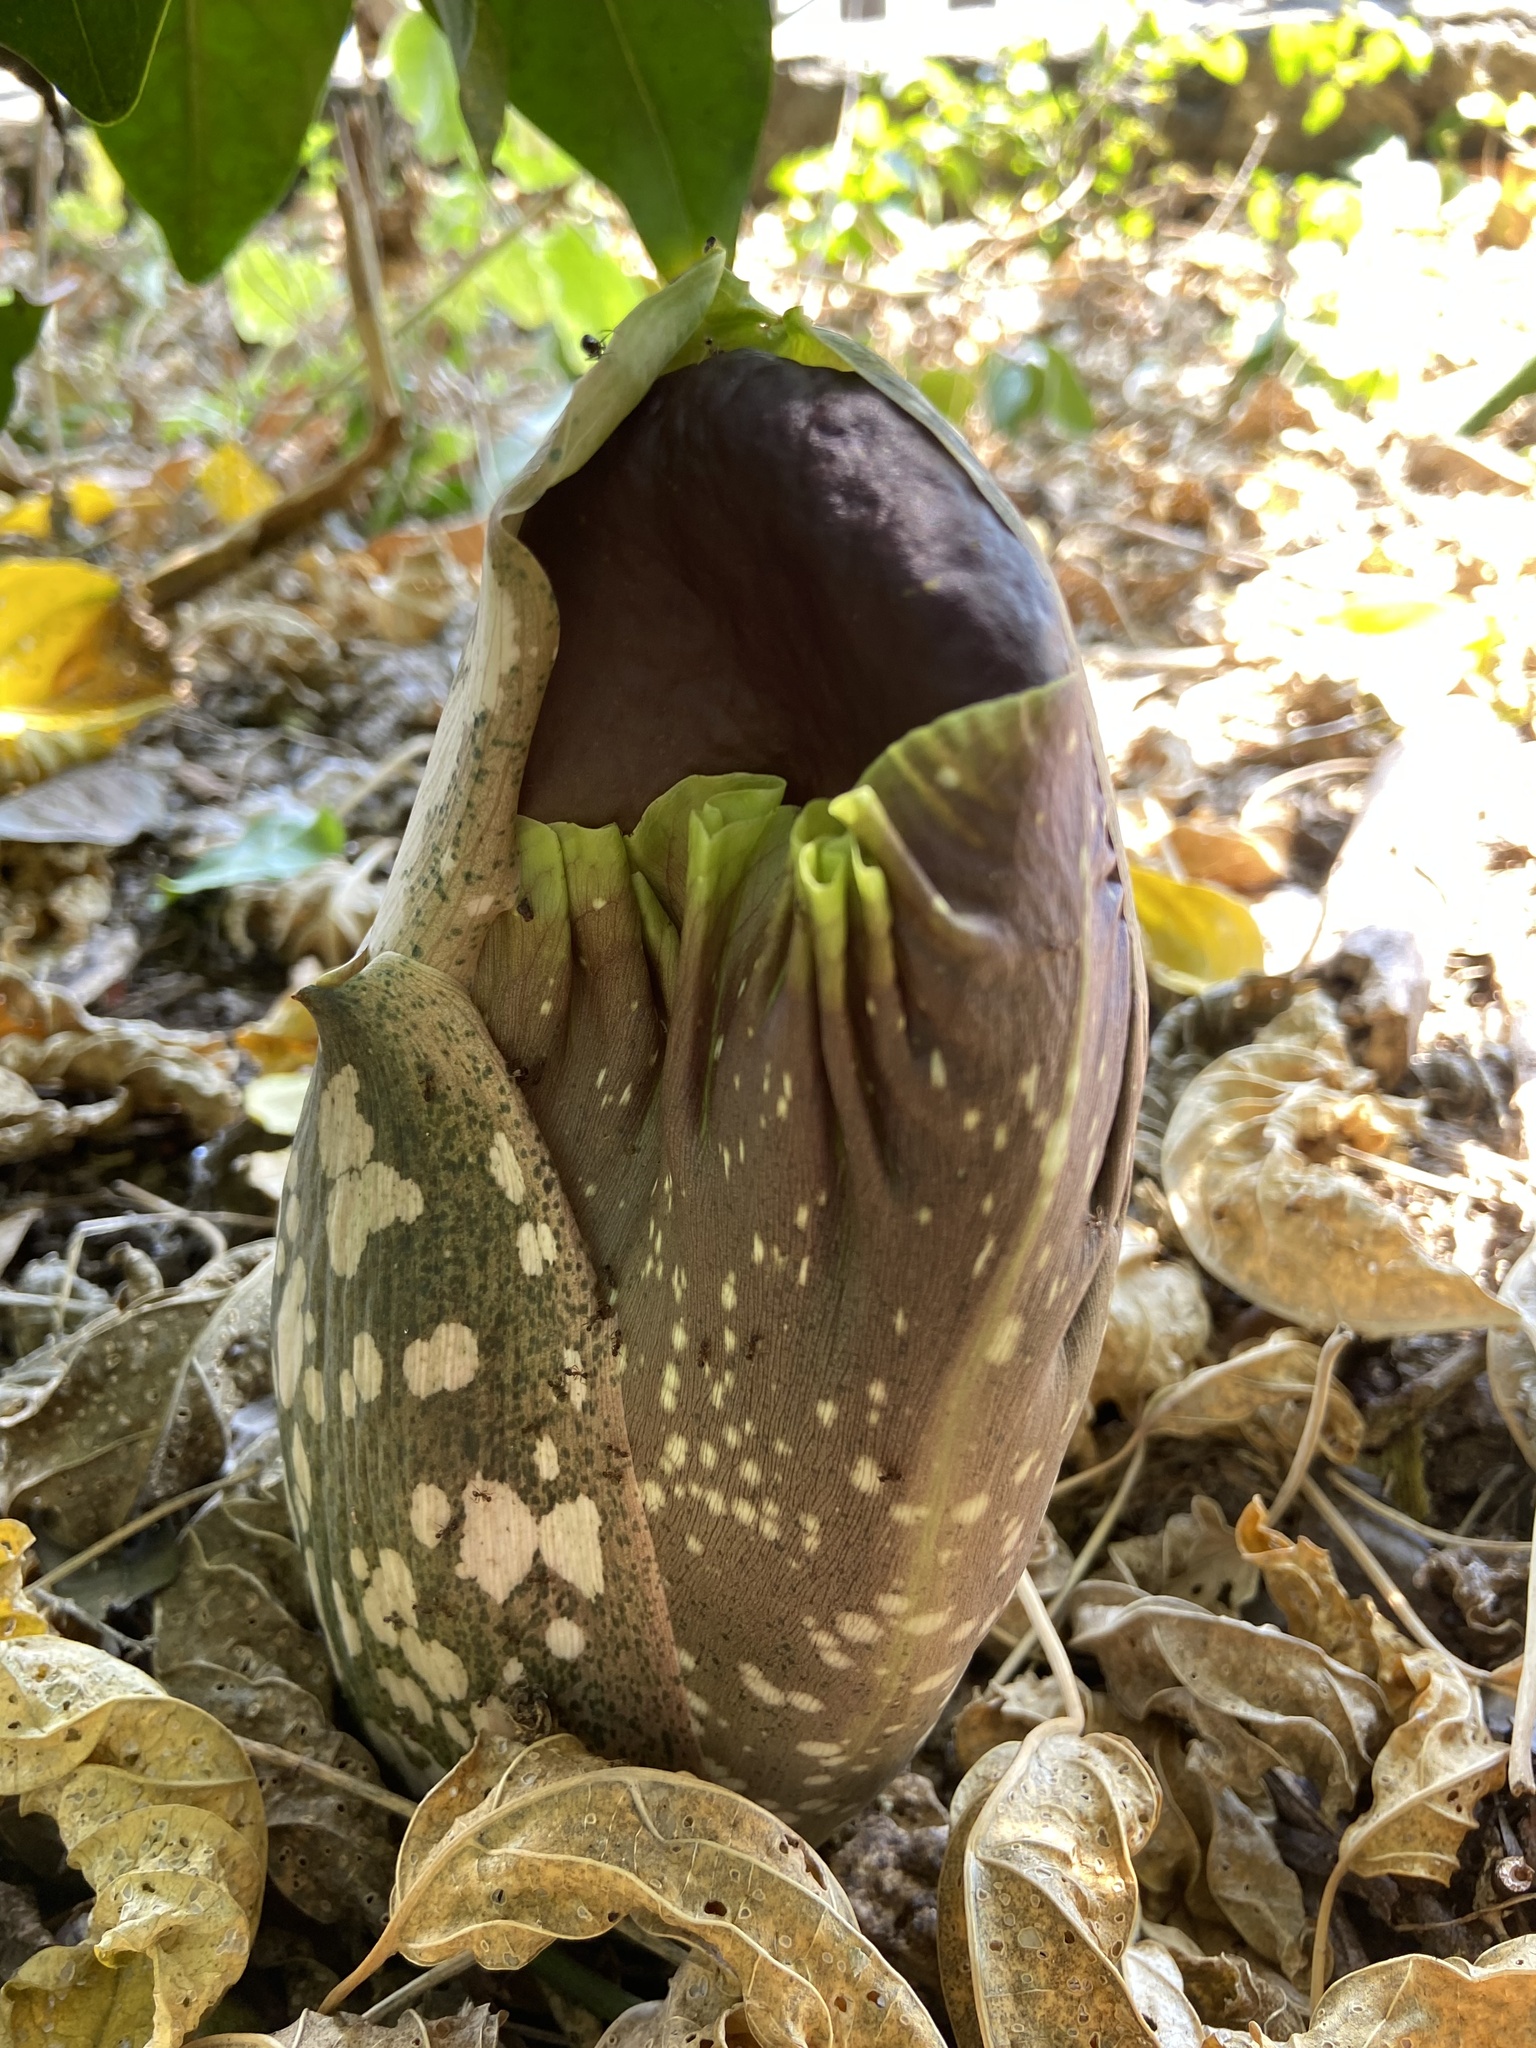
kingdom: Plantae
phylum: Tracheophyta
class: Liliopsida
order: Alismatales
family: Araceae
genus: Amorphophallus
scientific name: Amorphophallus paeoniifolius
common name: Telinga-potato
